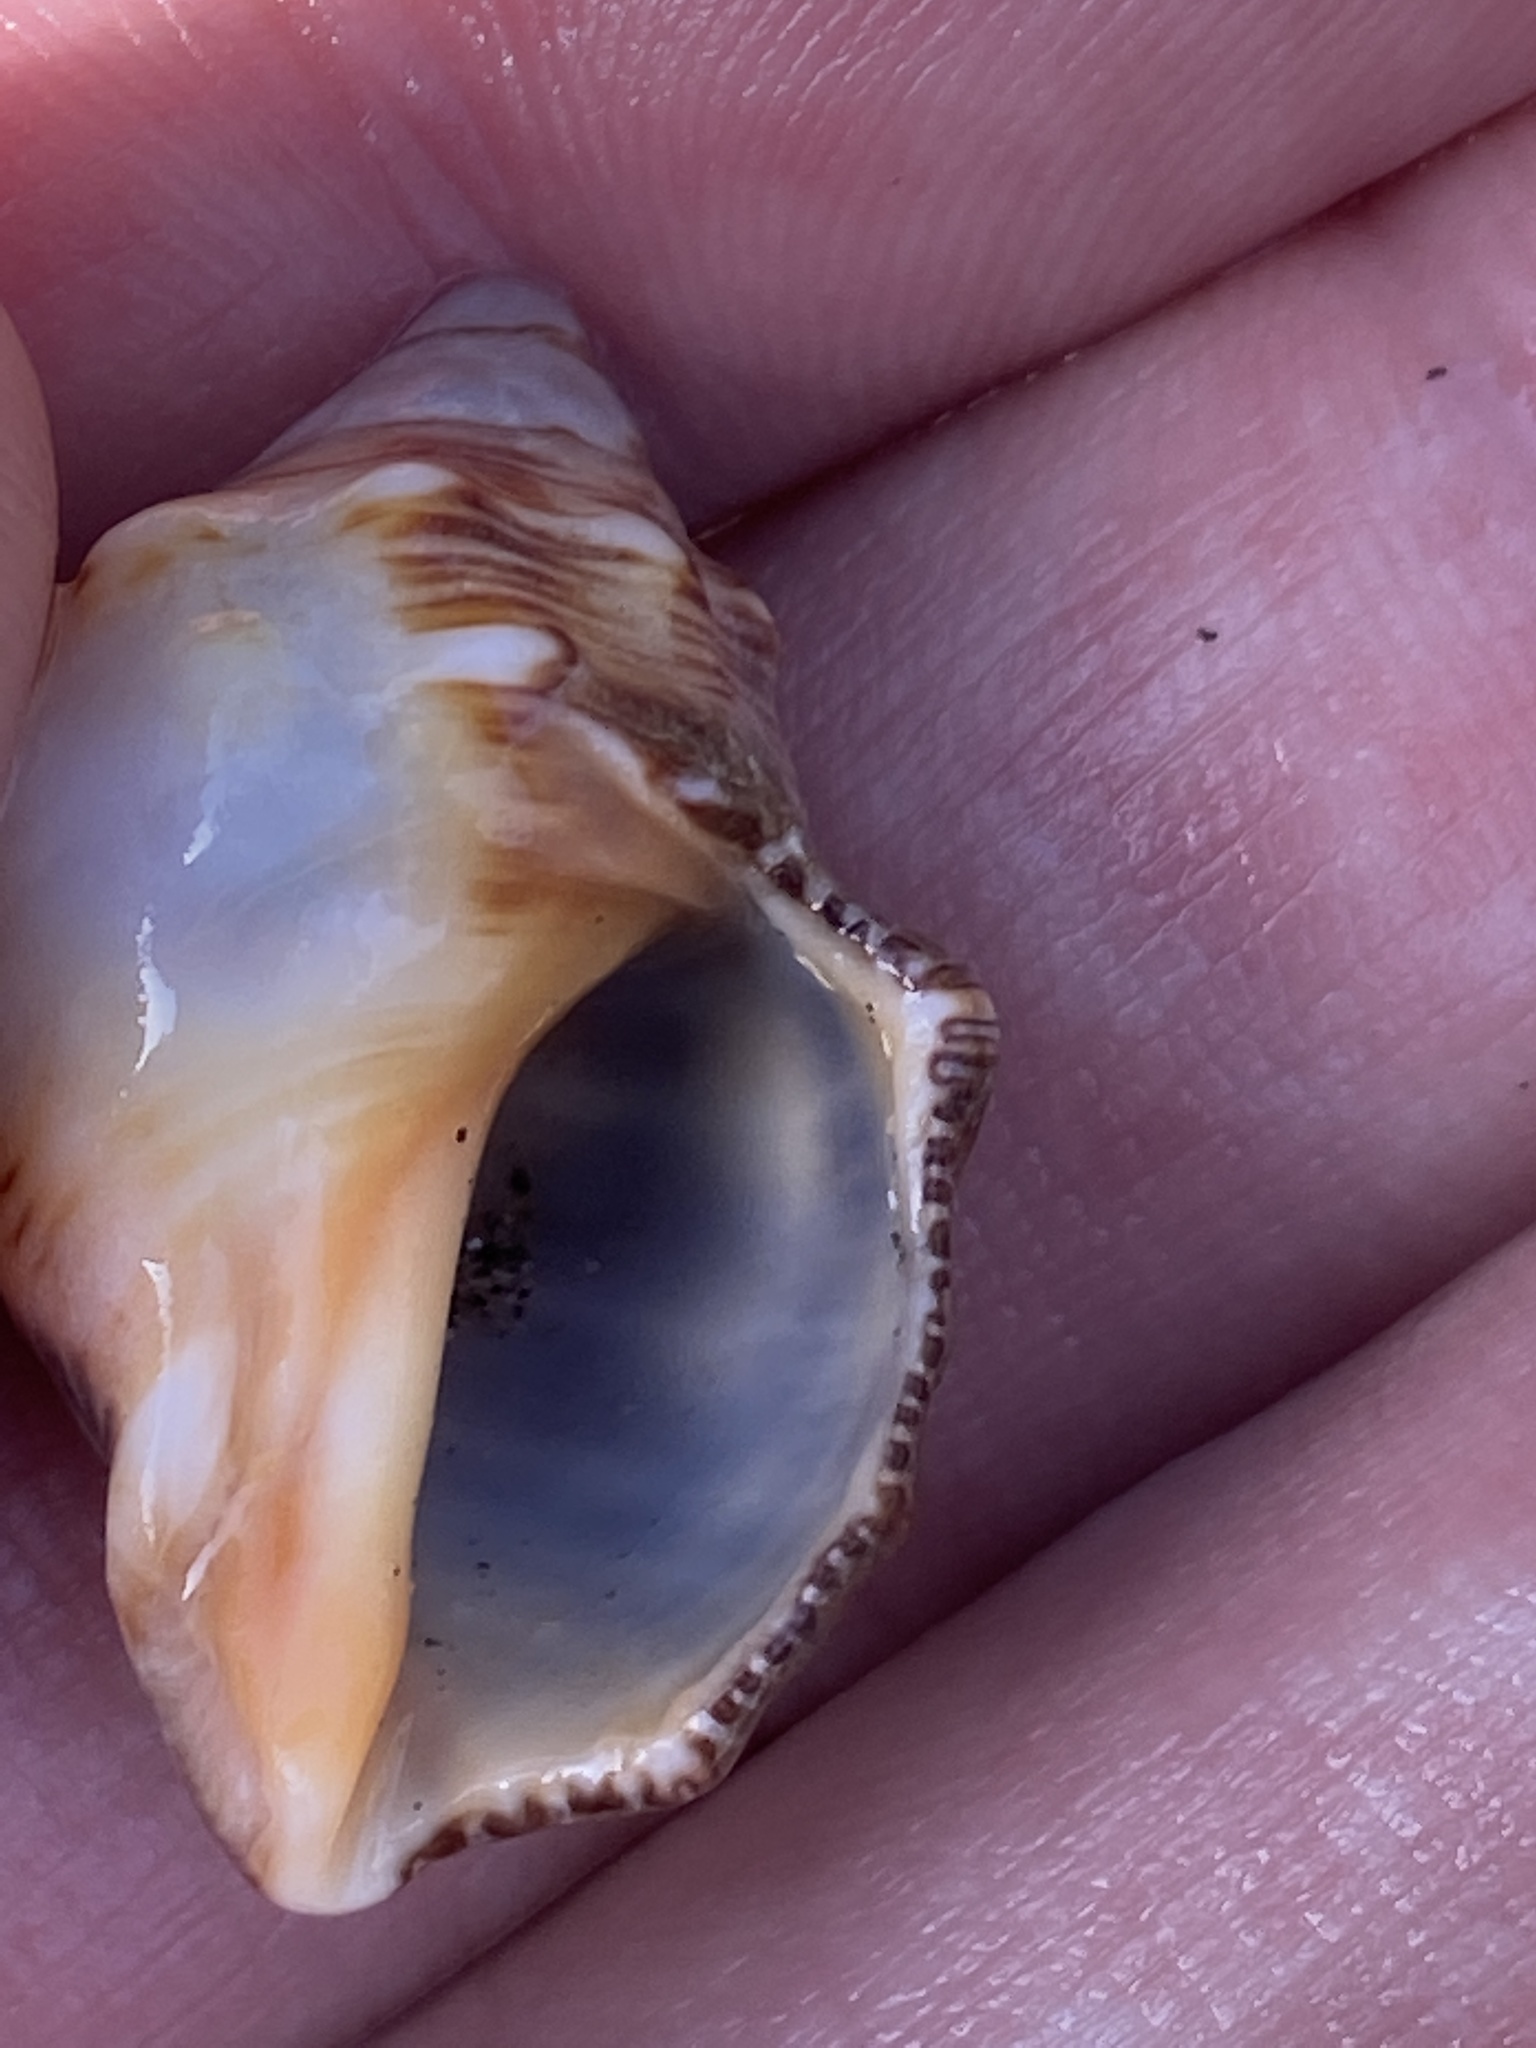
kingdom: Animalia
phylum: Mollusca
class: Gastropoda
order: Neogastropoda
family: Muricidae
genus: Stramonita
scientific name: Stramonita haemastoma
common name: Florida dog winkle
